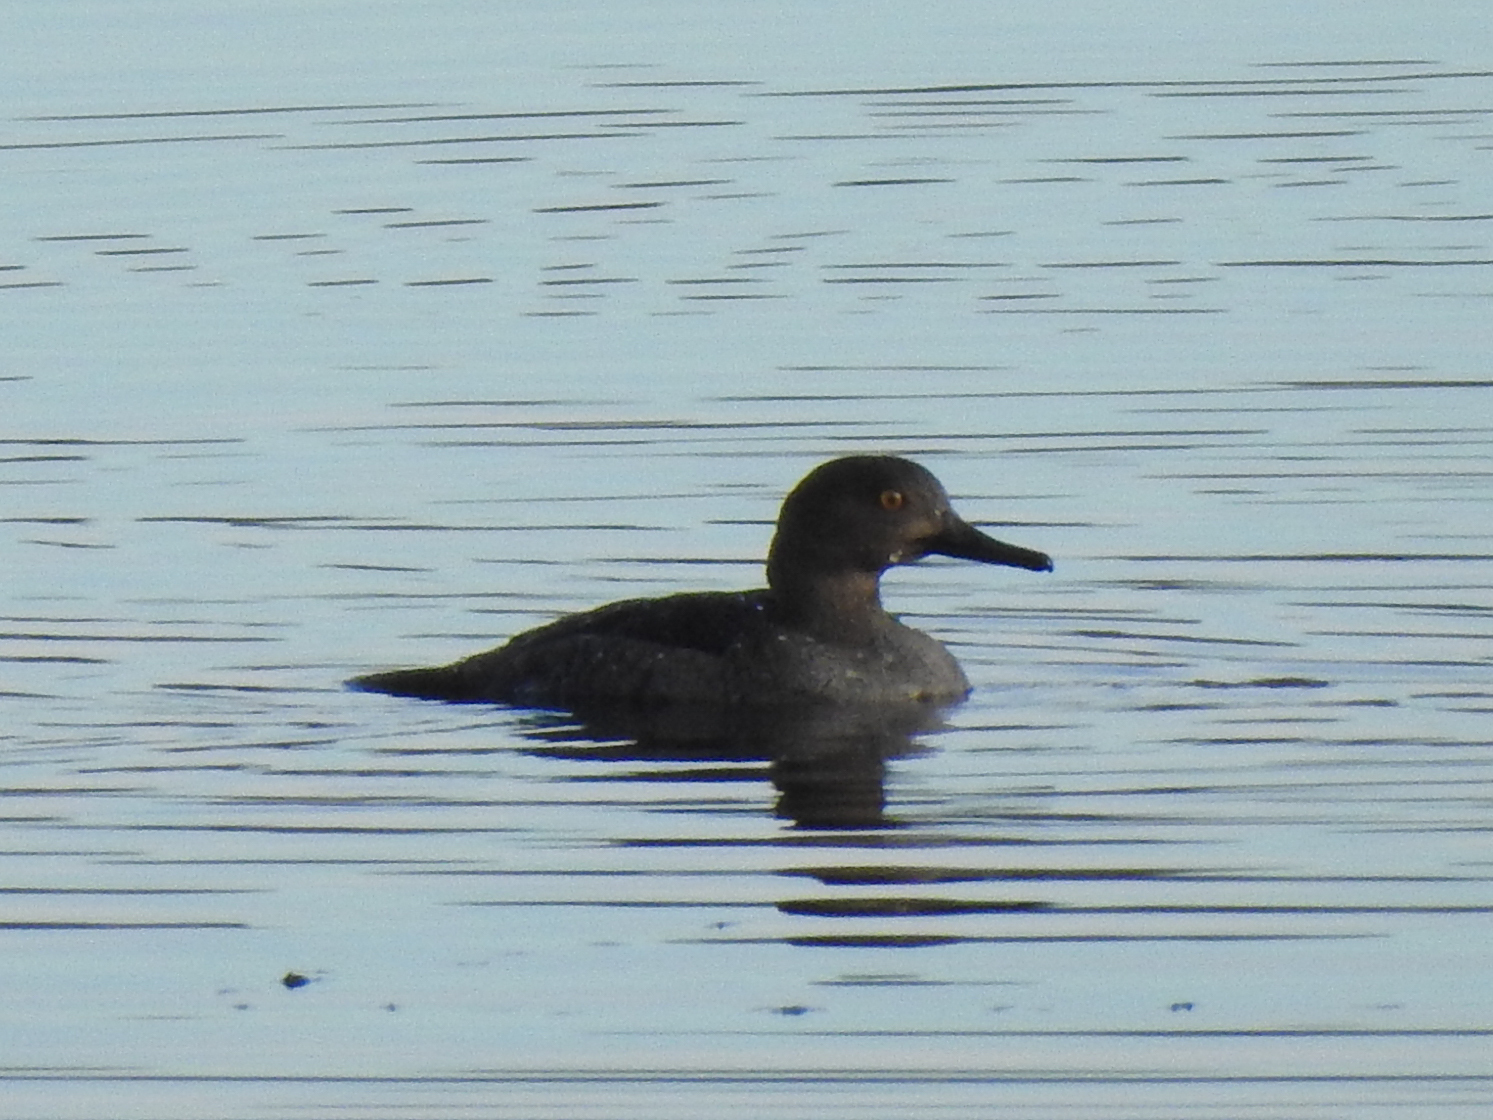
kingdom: Animalia
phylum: Chordata
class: Aves
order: Anseriformes
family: Anatidae
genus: Lophodytes
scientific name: Lophodytes cucullatus
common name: Hooded merganser
